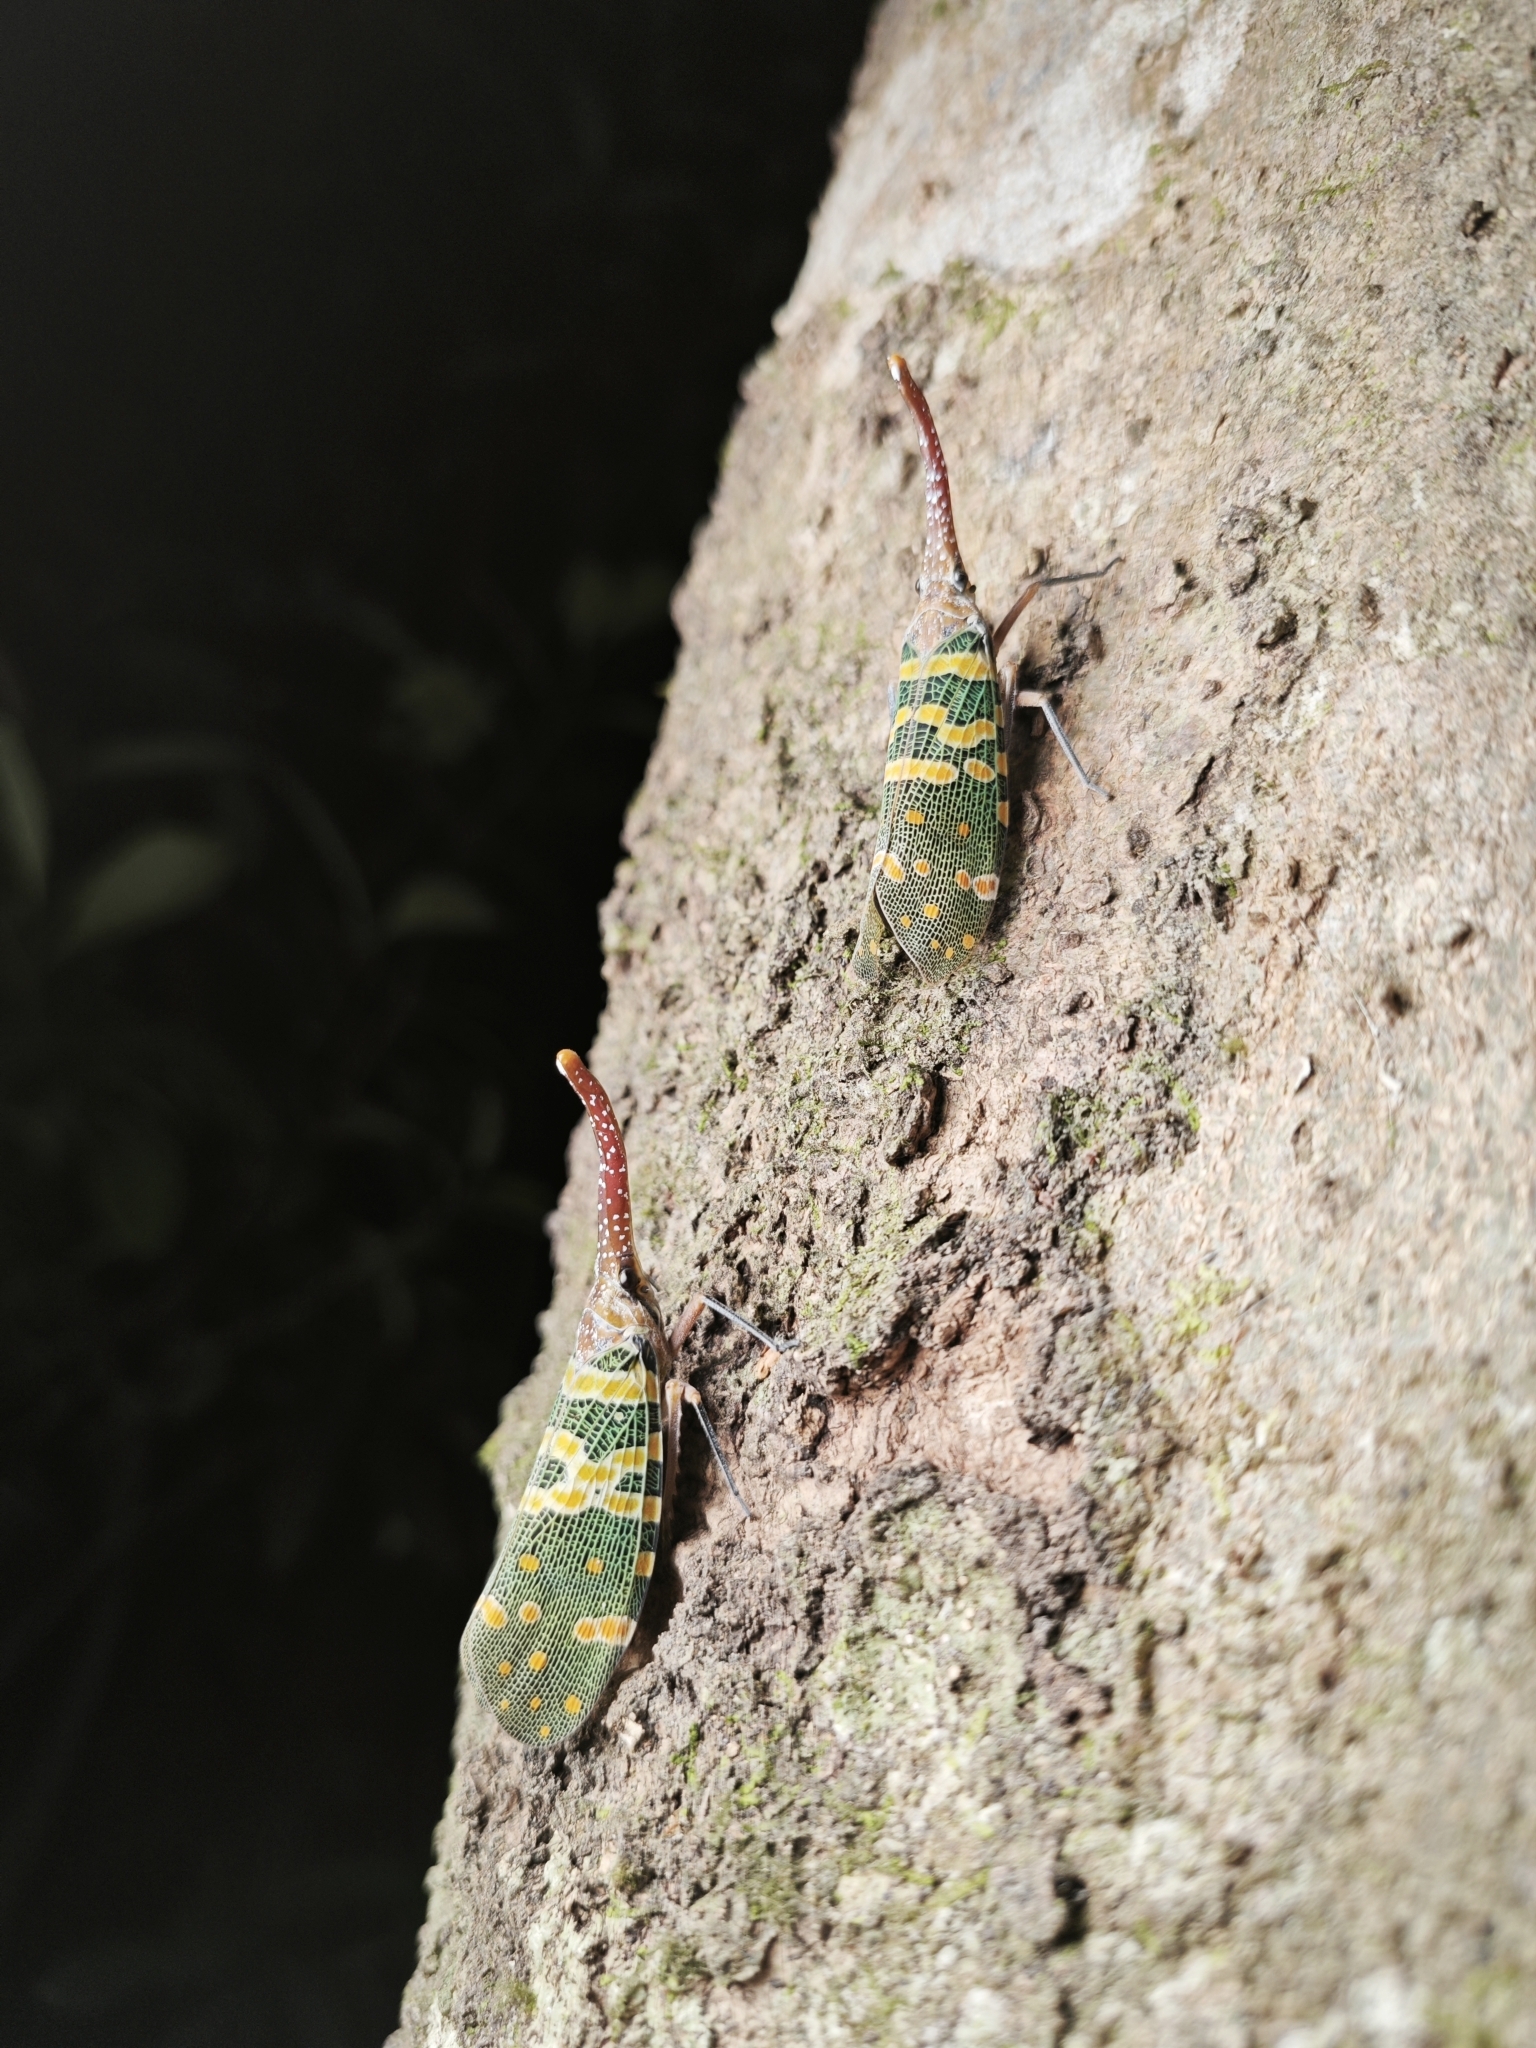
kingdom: Animalia
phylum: Arthropoda
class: Insecta
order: Hemiptera
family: Fulgoridae
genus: Pyrops
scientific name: Pyrops candelaria
